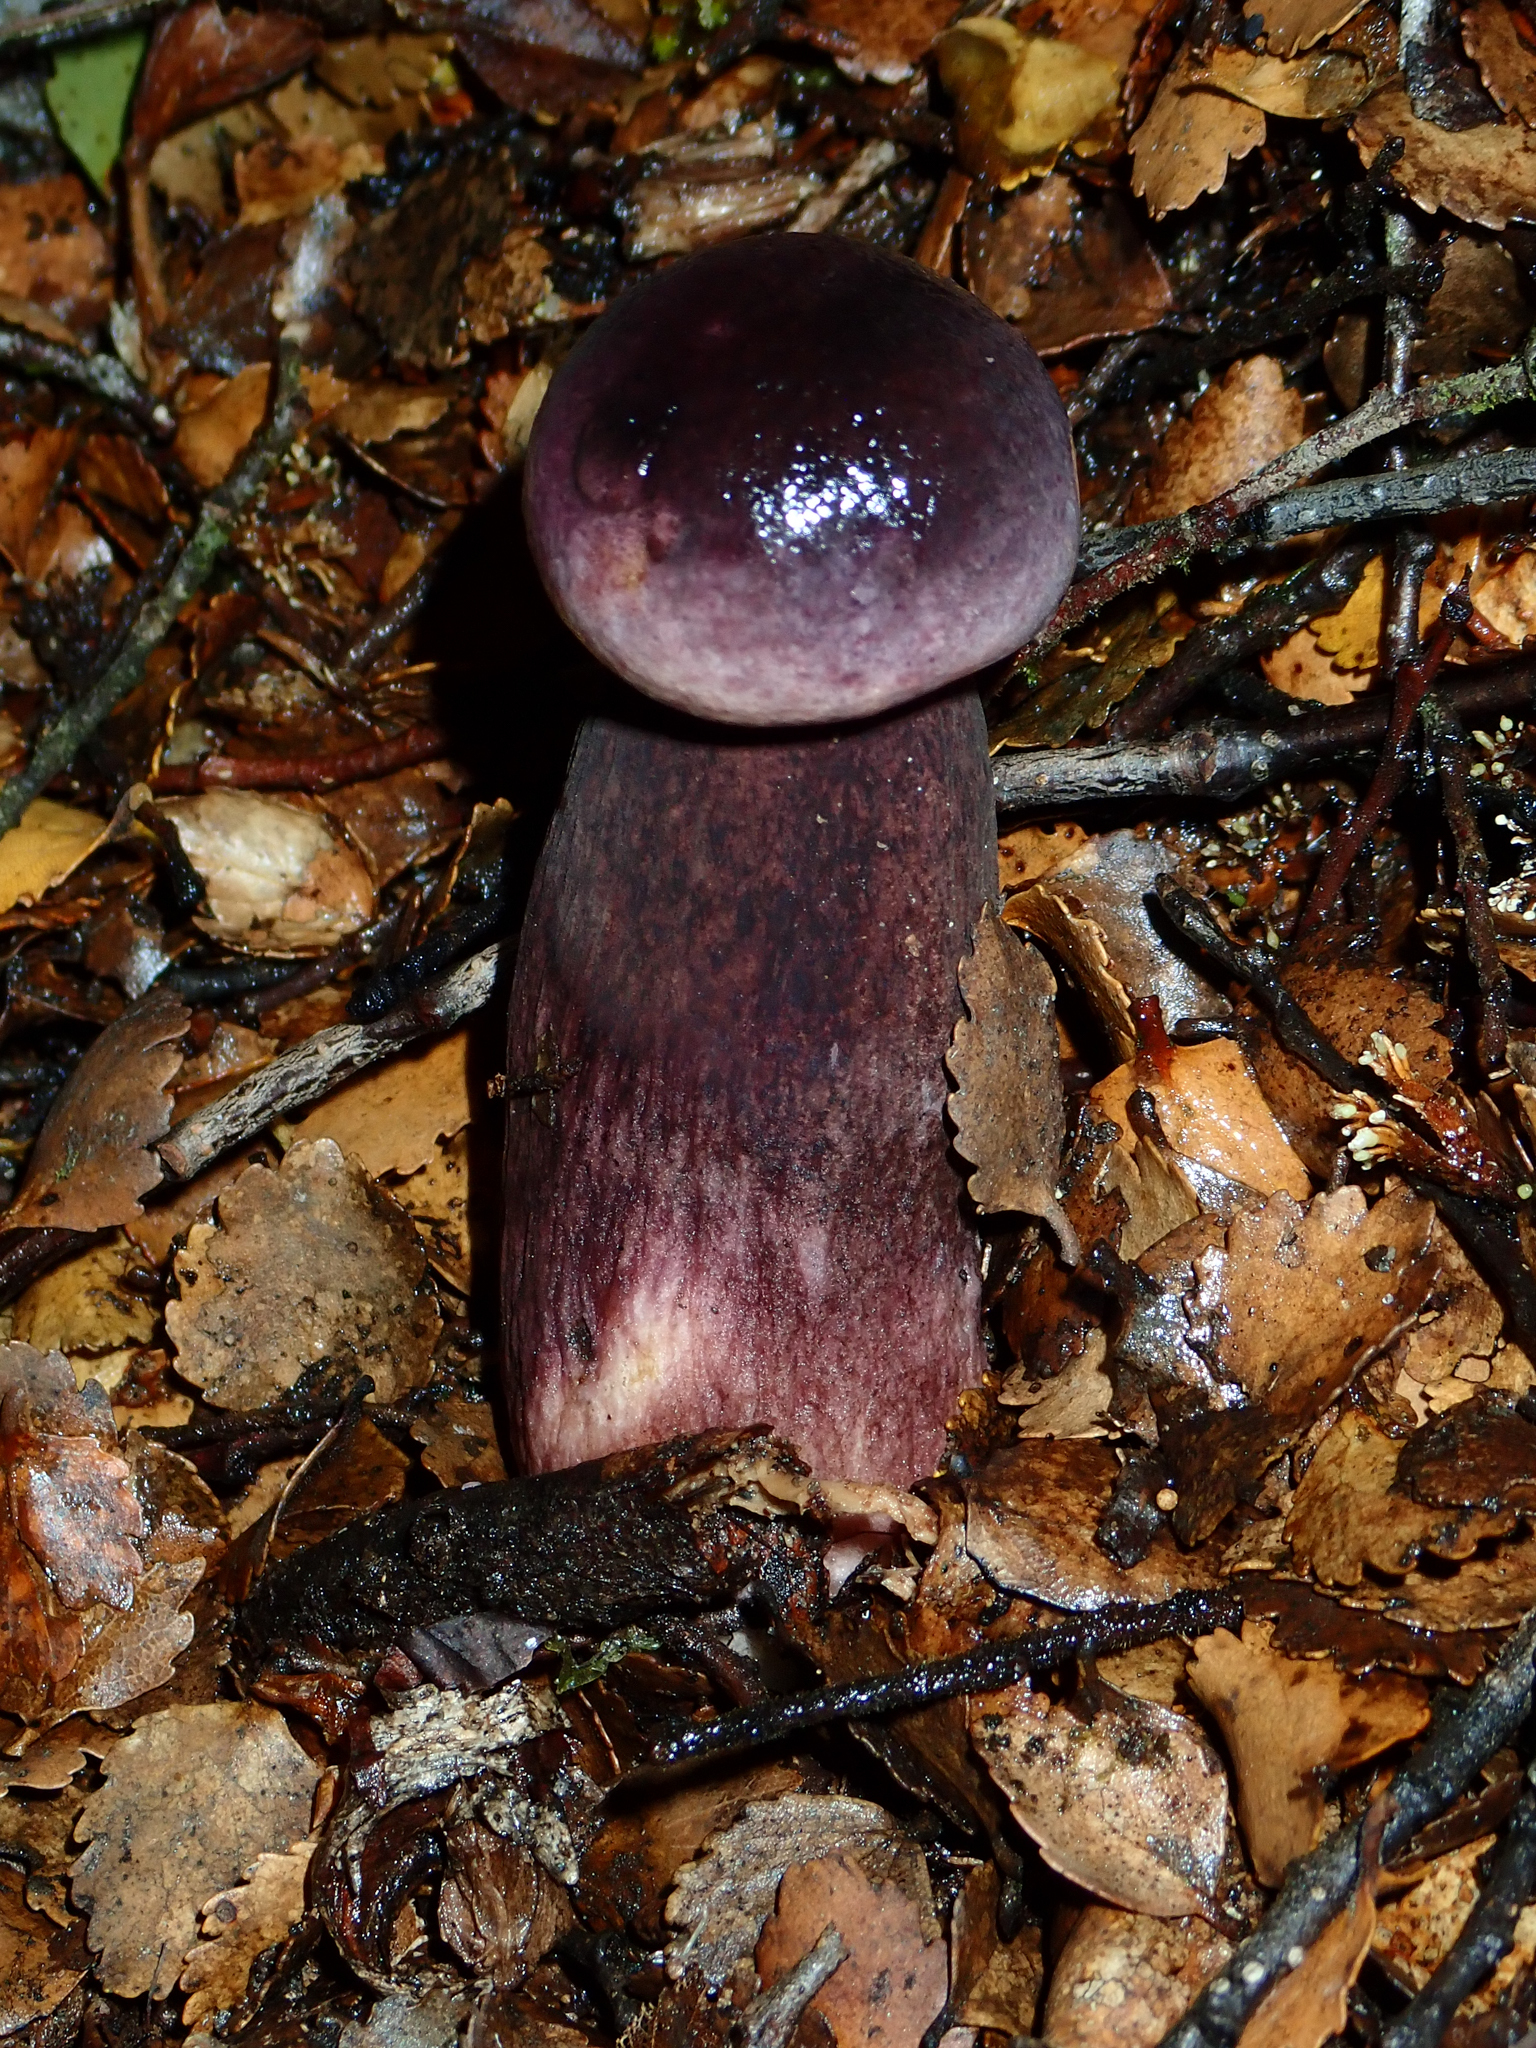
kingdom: Fungi
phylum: Basidiomycota
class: Agaricomycetes
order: Boletales
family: Boletaceae
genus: Porphyrellus
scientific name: Porphyrellus formosus
